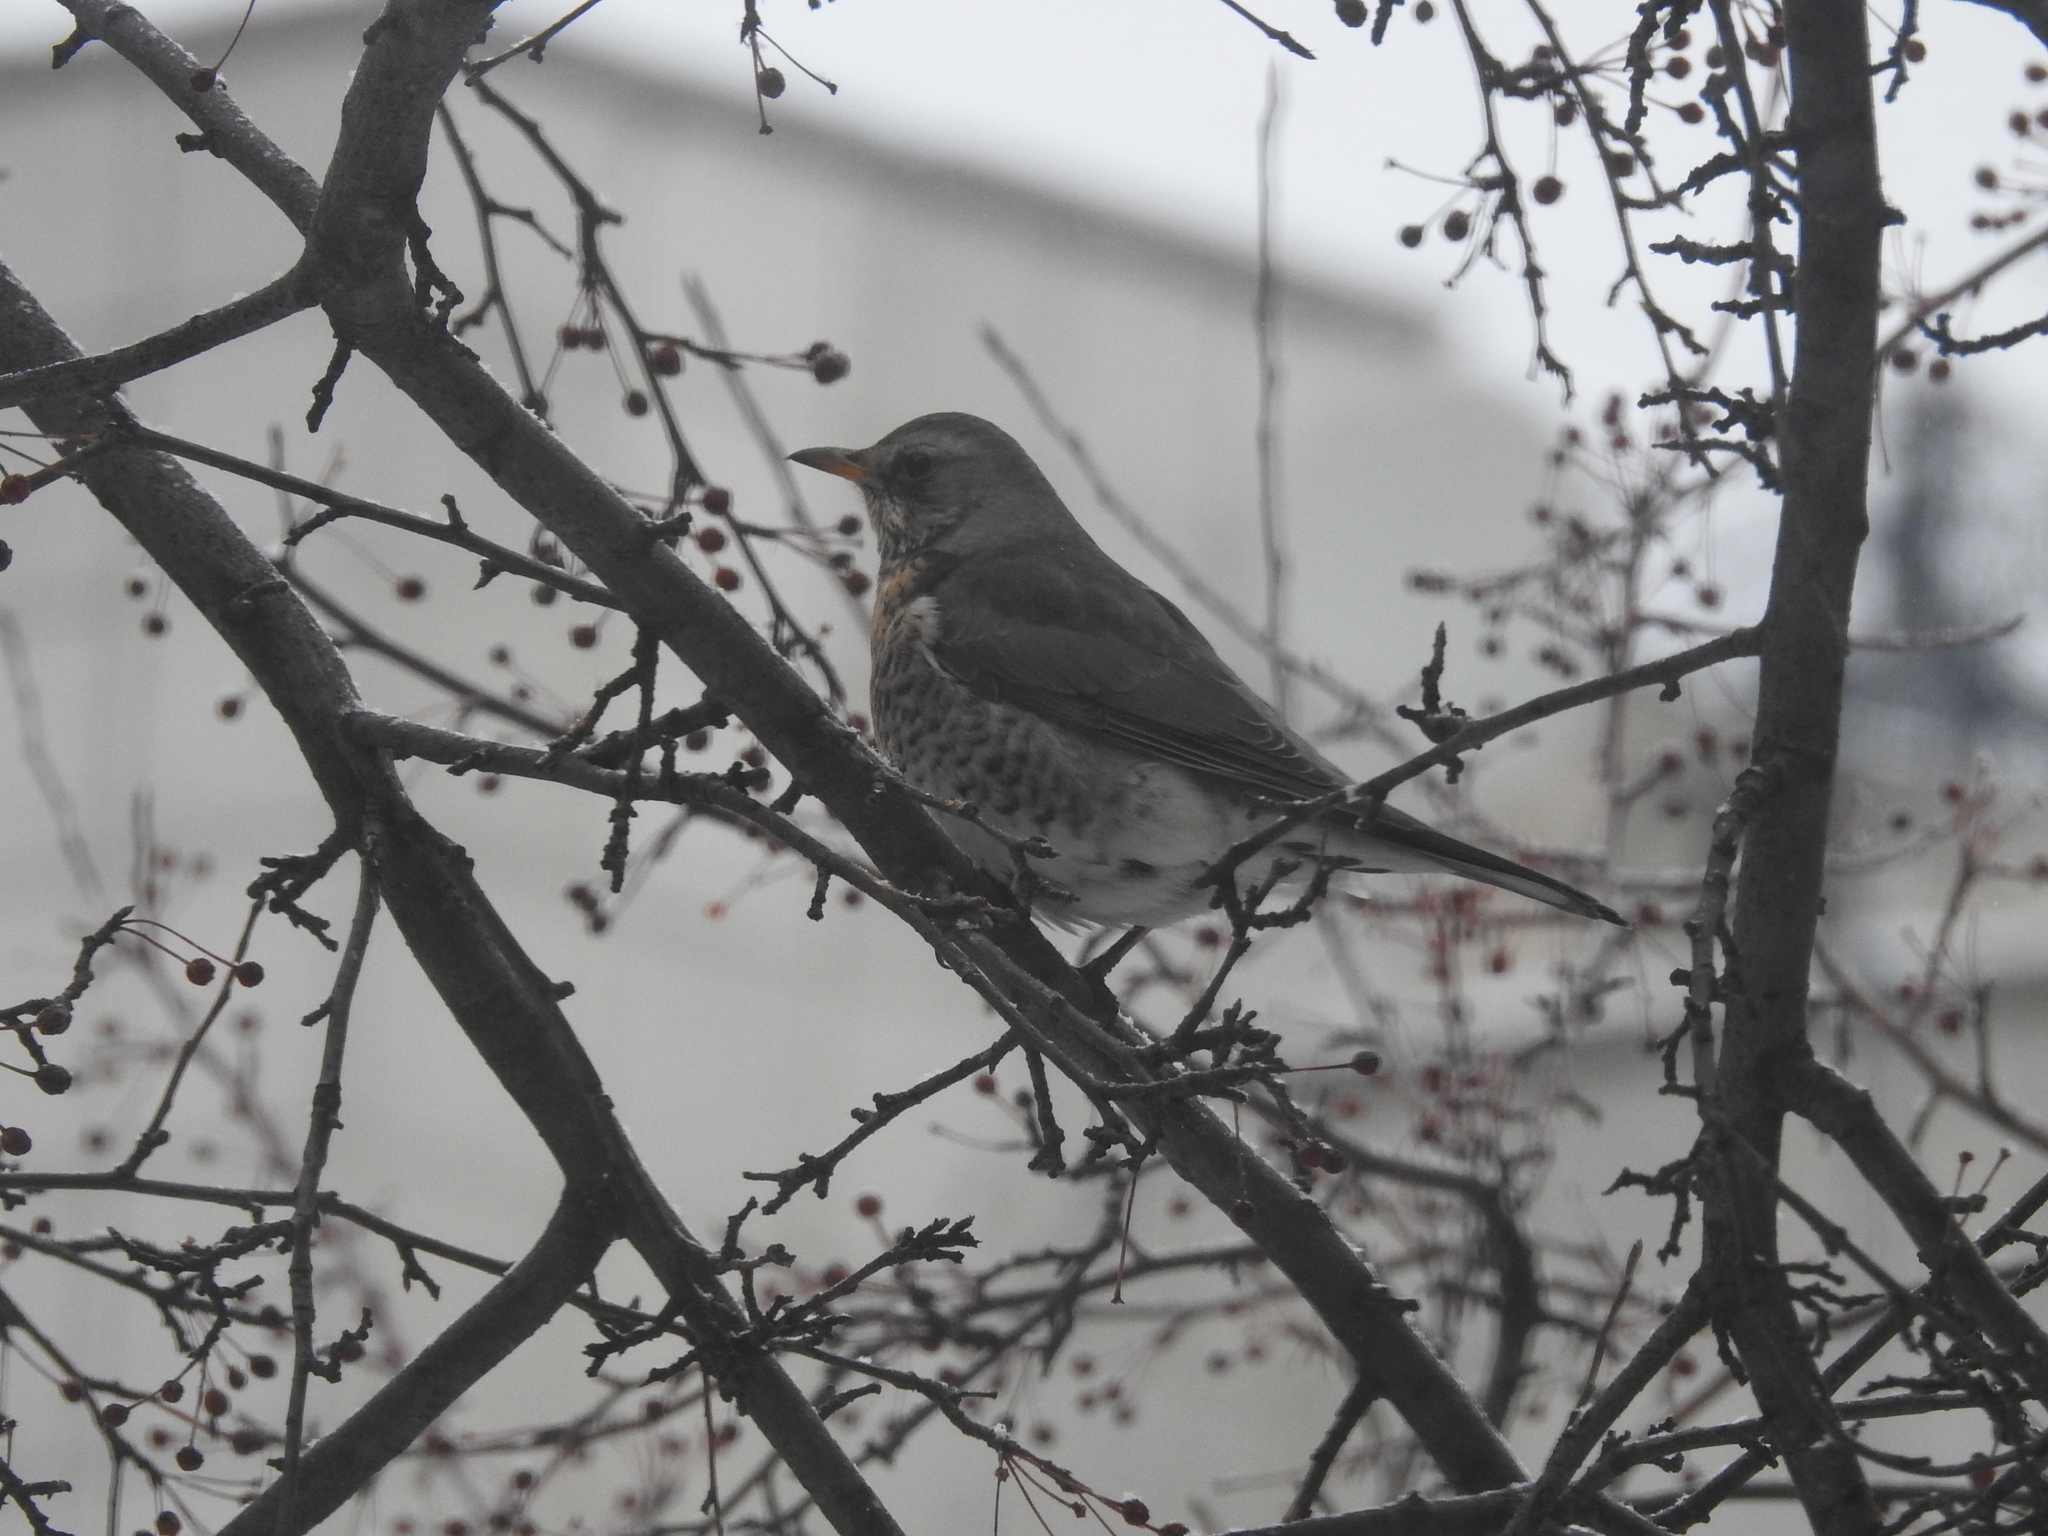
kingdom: Animalia
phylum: Chordata
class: Aves
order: Passeriformes
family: Turdidae
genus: Turdus
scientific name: Turdus pilaris
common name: Fieldfare
